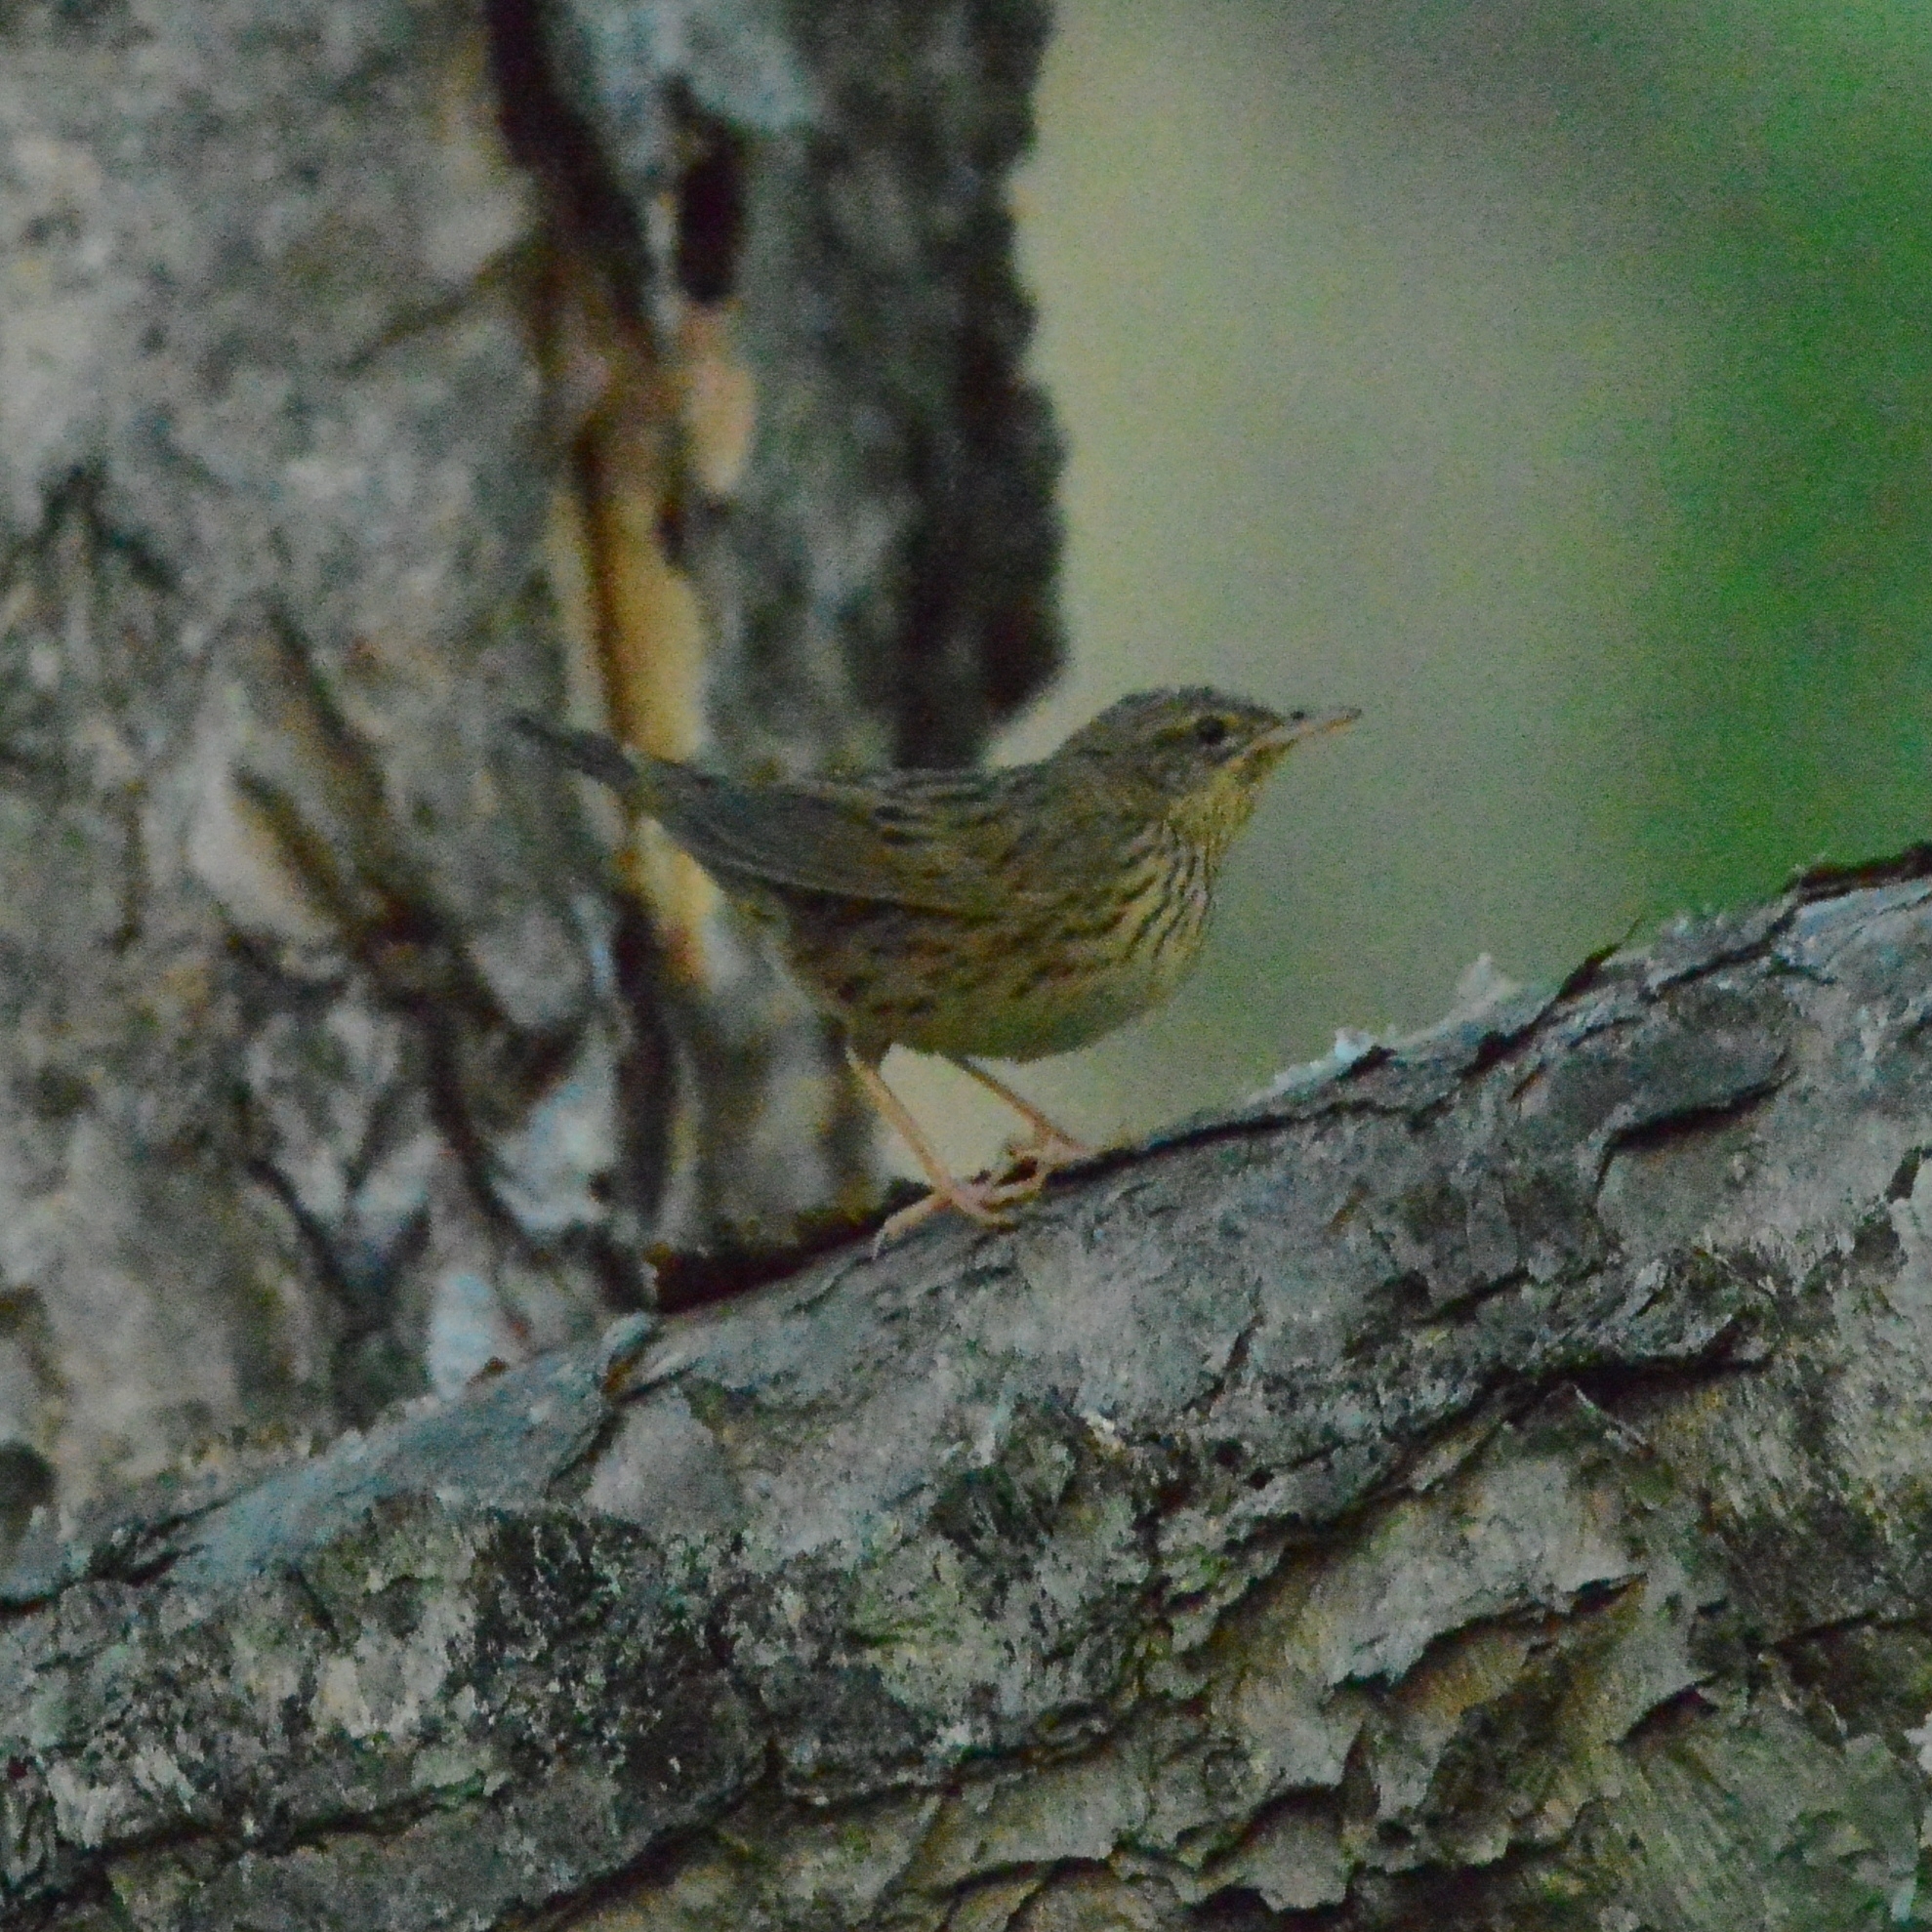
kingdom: Animalia
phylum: Chordata
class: Aves
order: Passeriformes
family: Locustellidae
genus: Locustella
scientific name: Locustella lanceolata
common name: Lanceolated warbler
